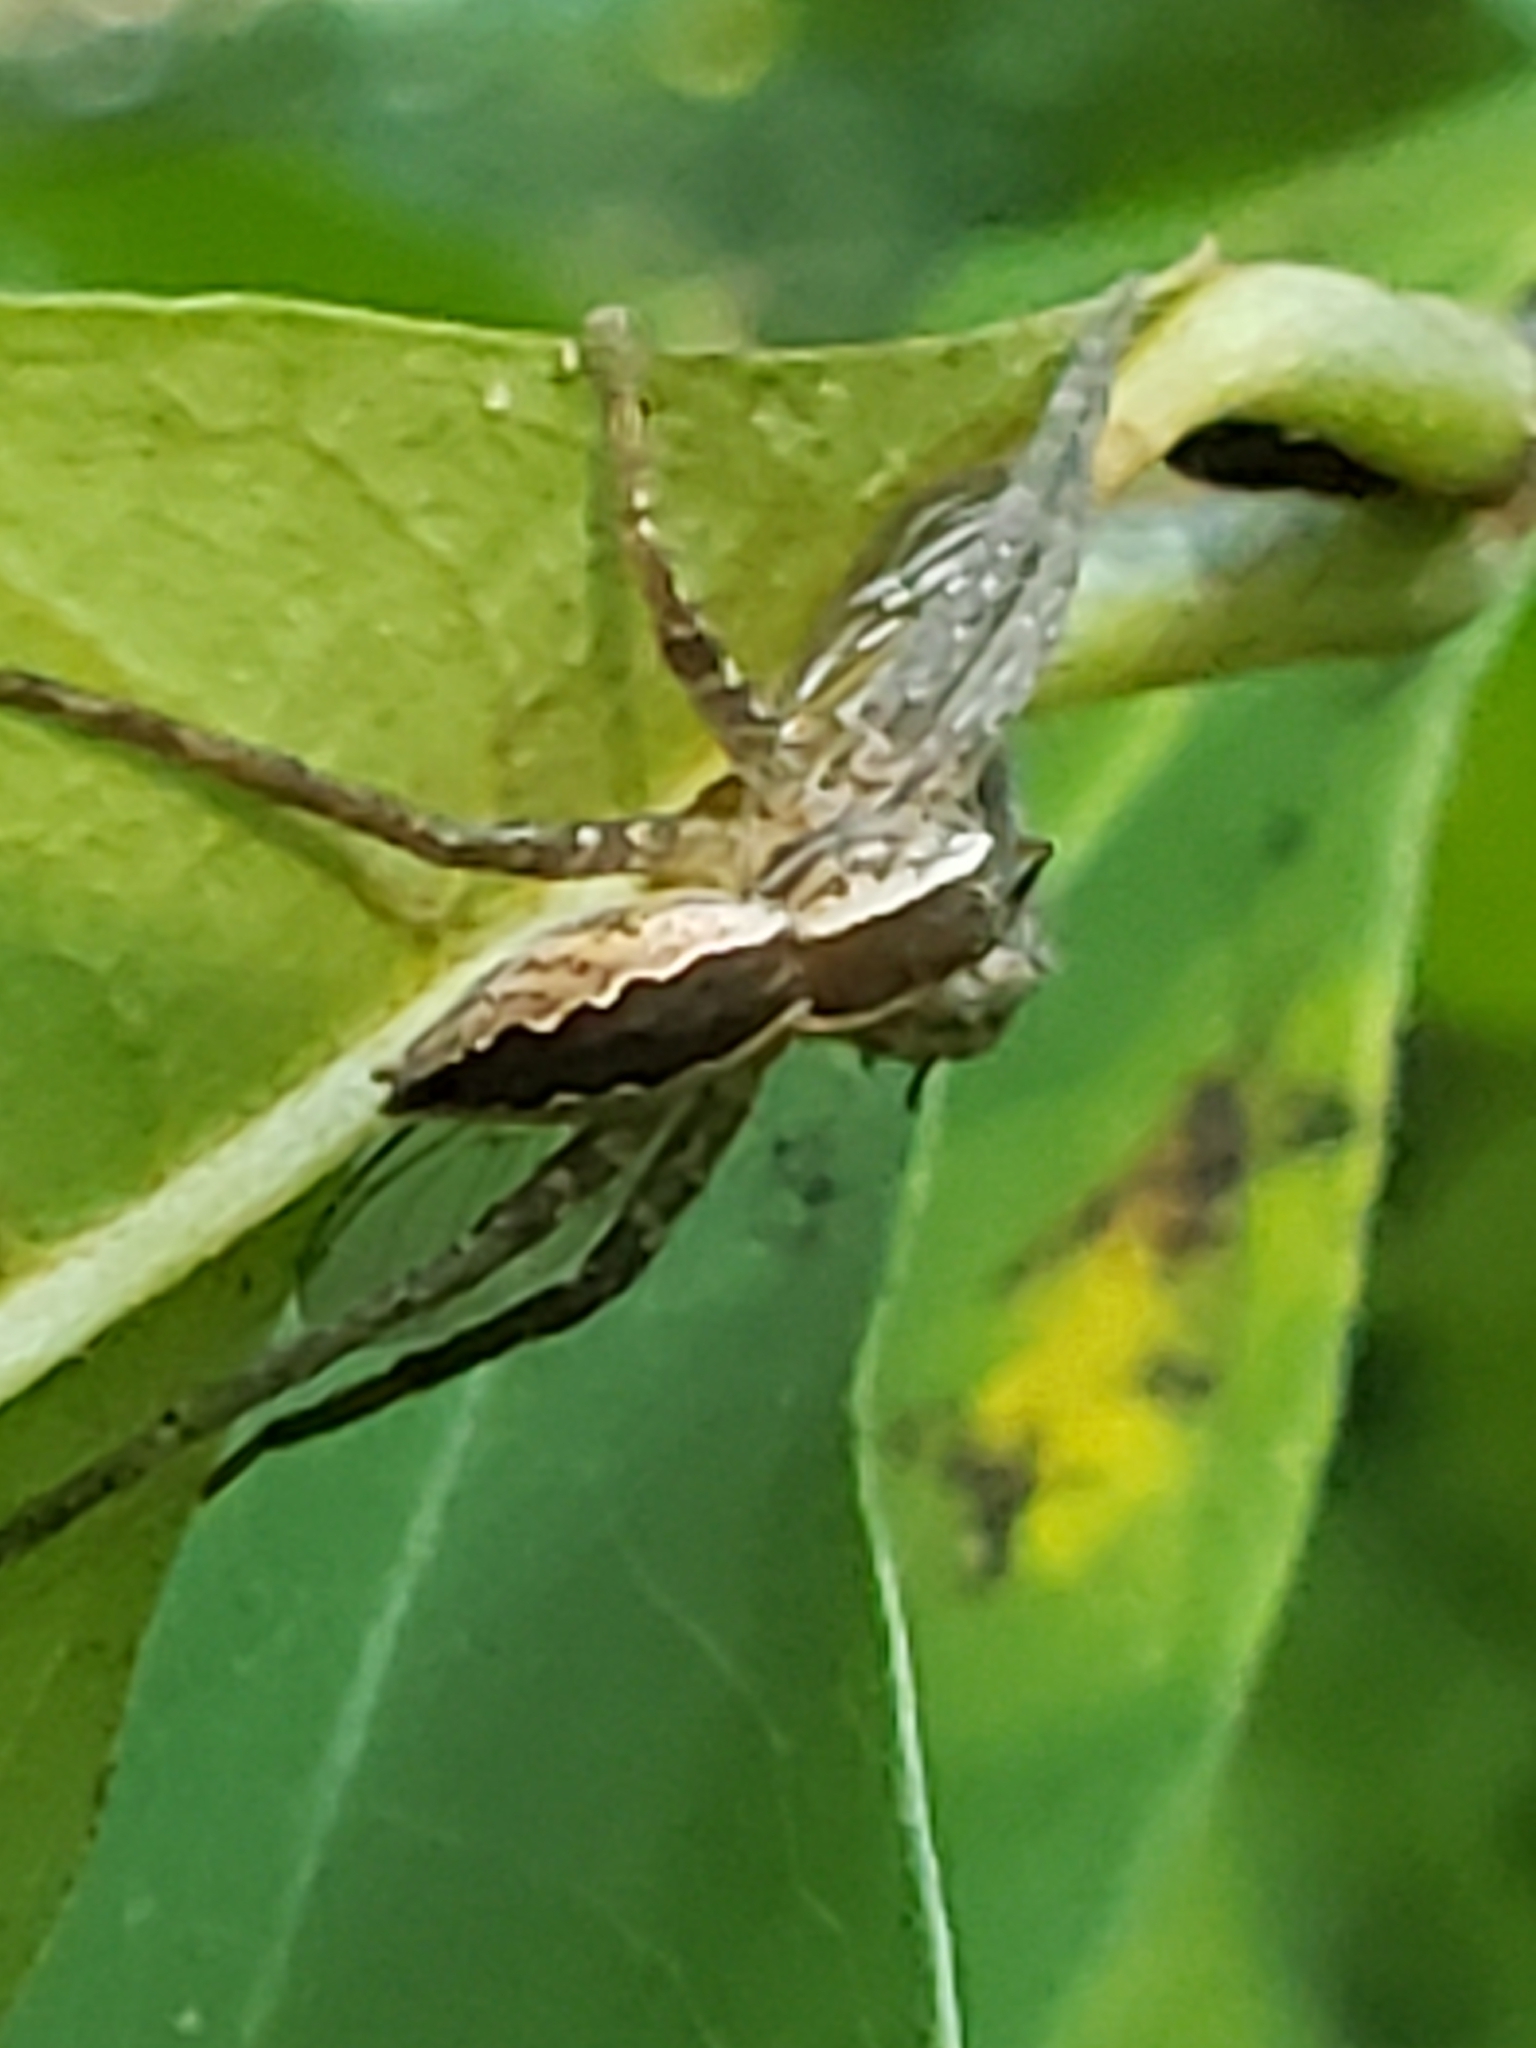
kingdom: Animalia
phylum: Arthropoda
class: Arachnida
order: Araneae
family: Pisauridae
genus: Pisaurina
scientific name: Pisaurina mira
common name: American nursery web spider
